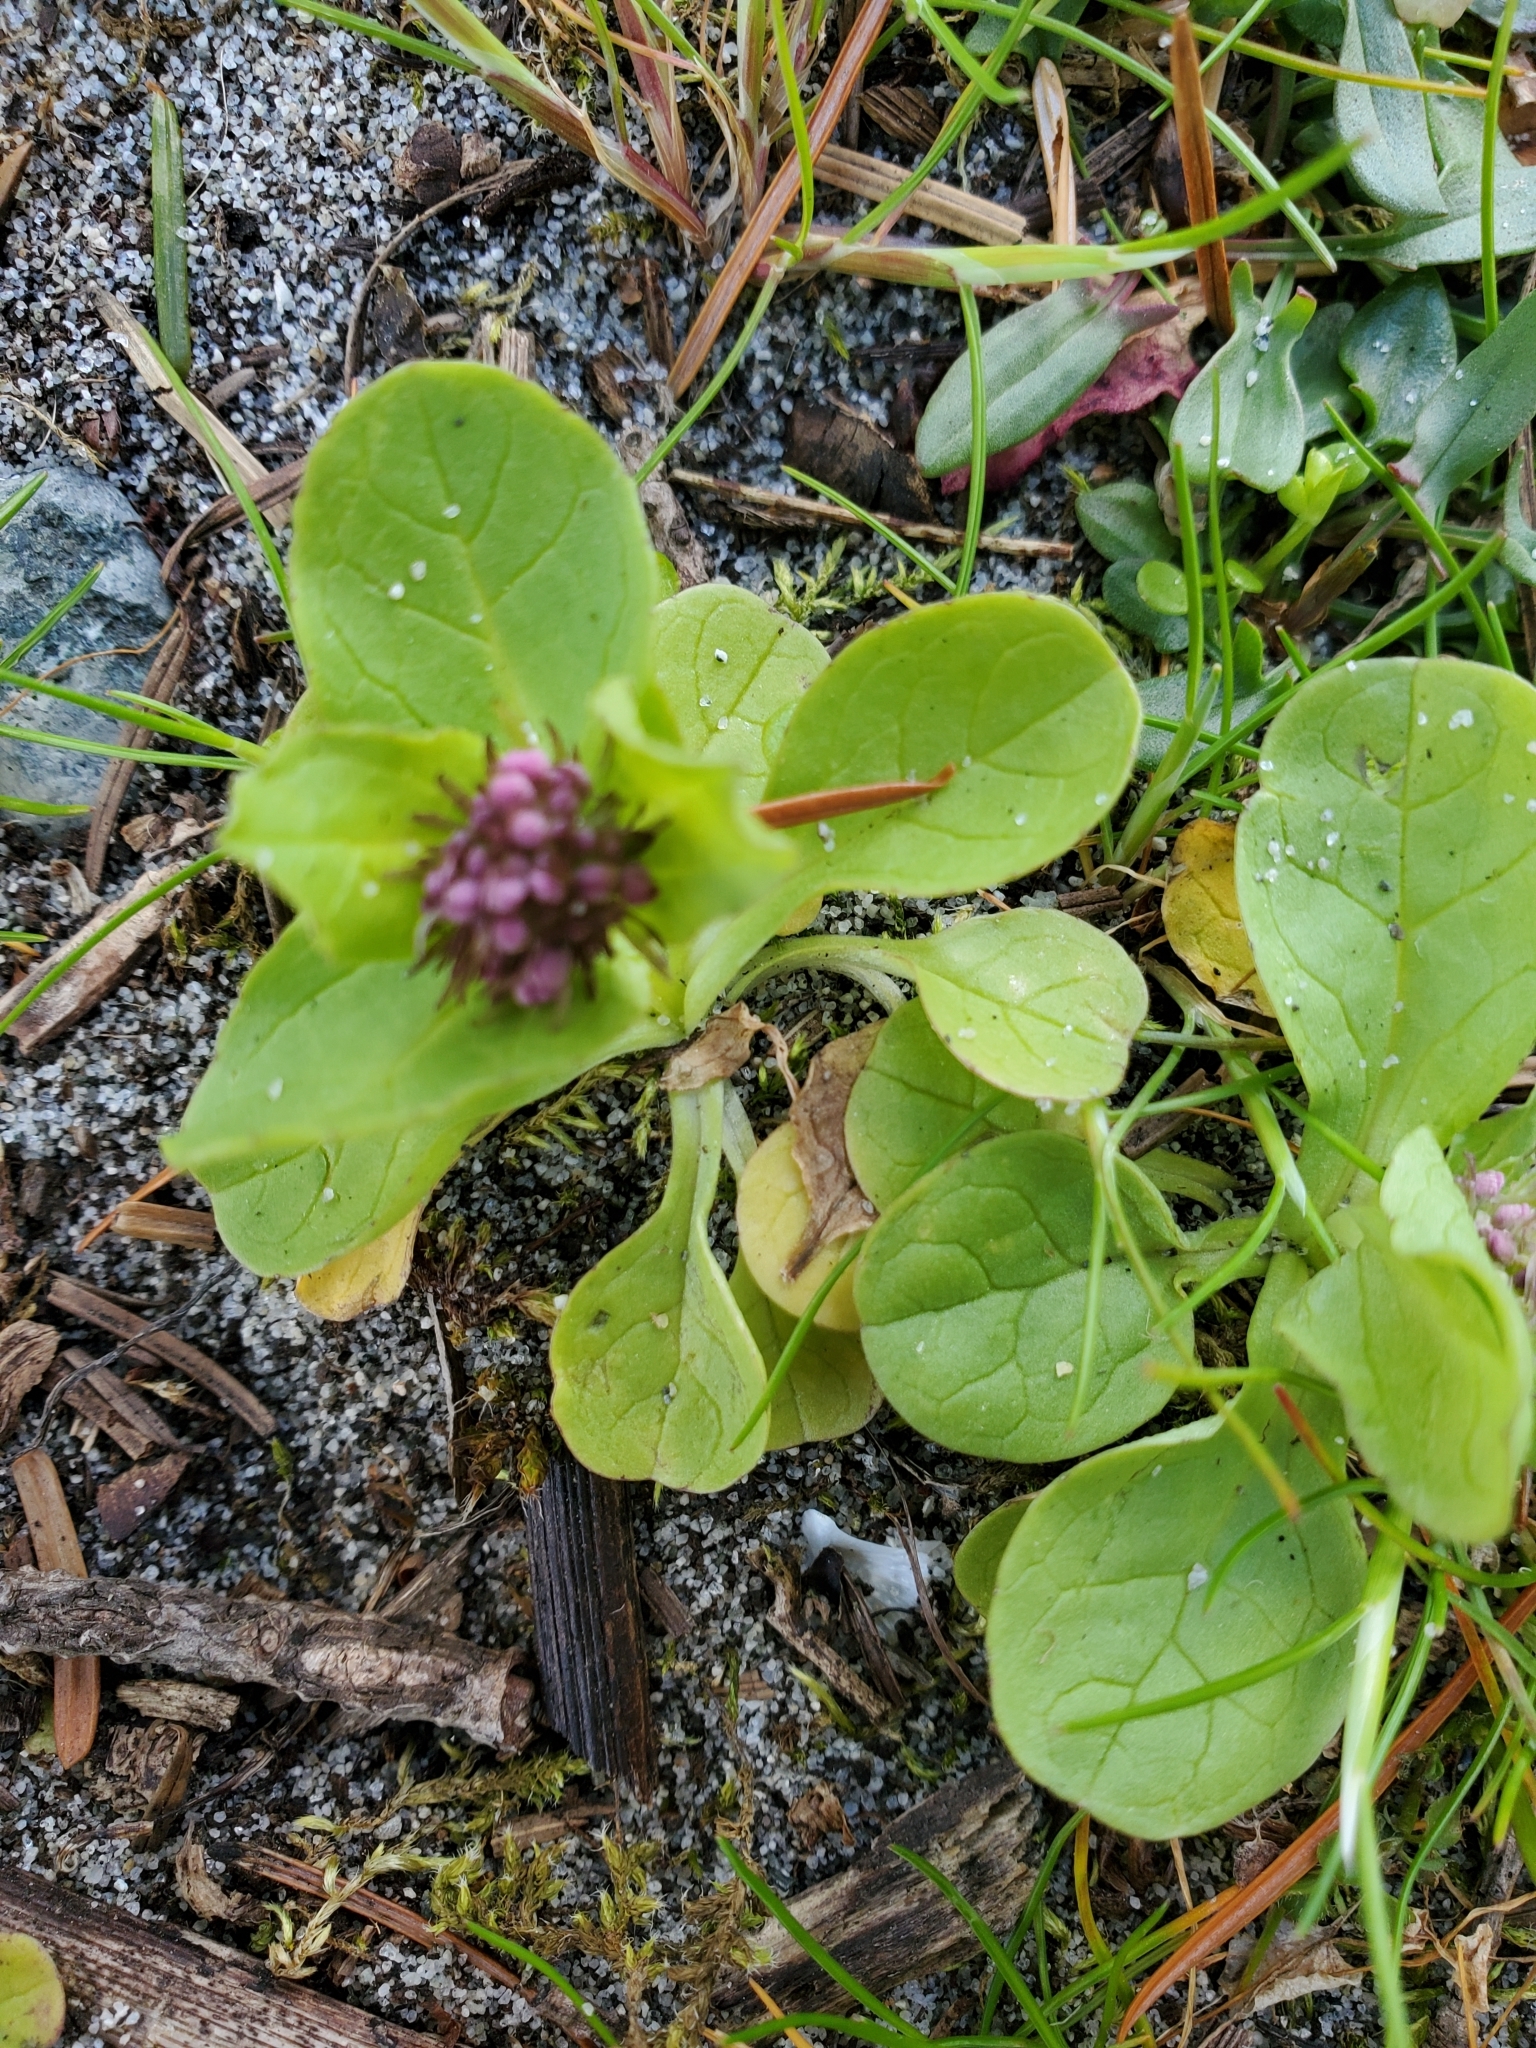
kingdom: Plantae
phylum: Tracheophyta
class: Magnoliopsida
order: Dipsacales
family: Caprifoliaceae
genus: Plectritis
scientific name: Plectritis congesta
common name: Pink plectritis
